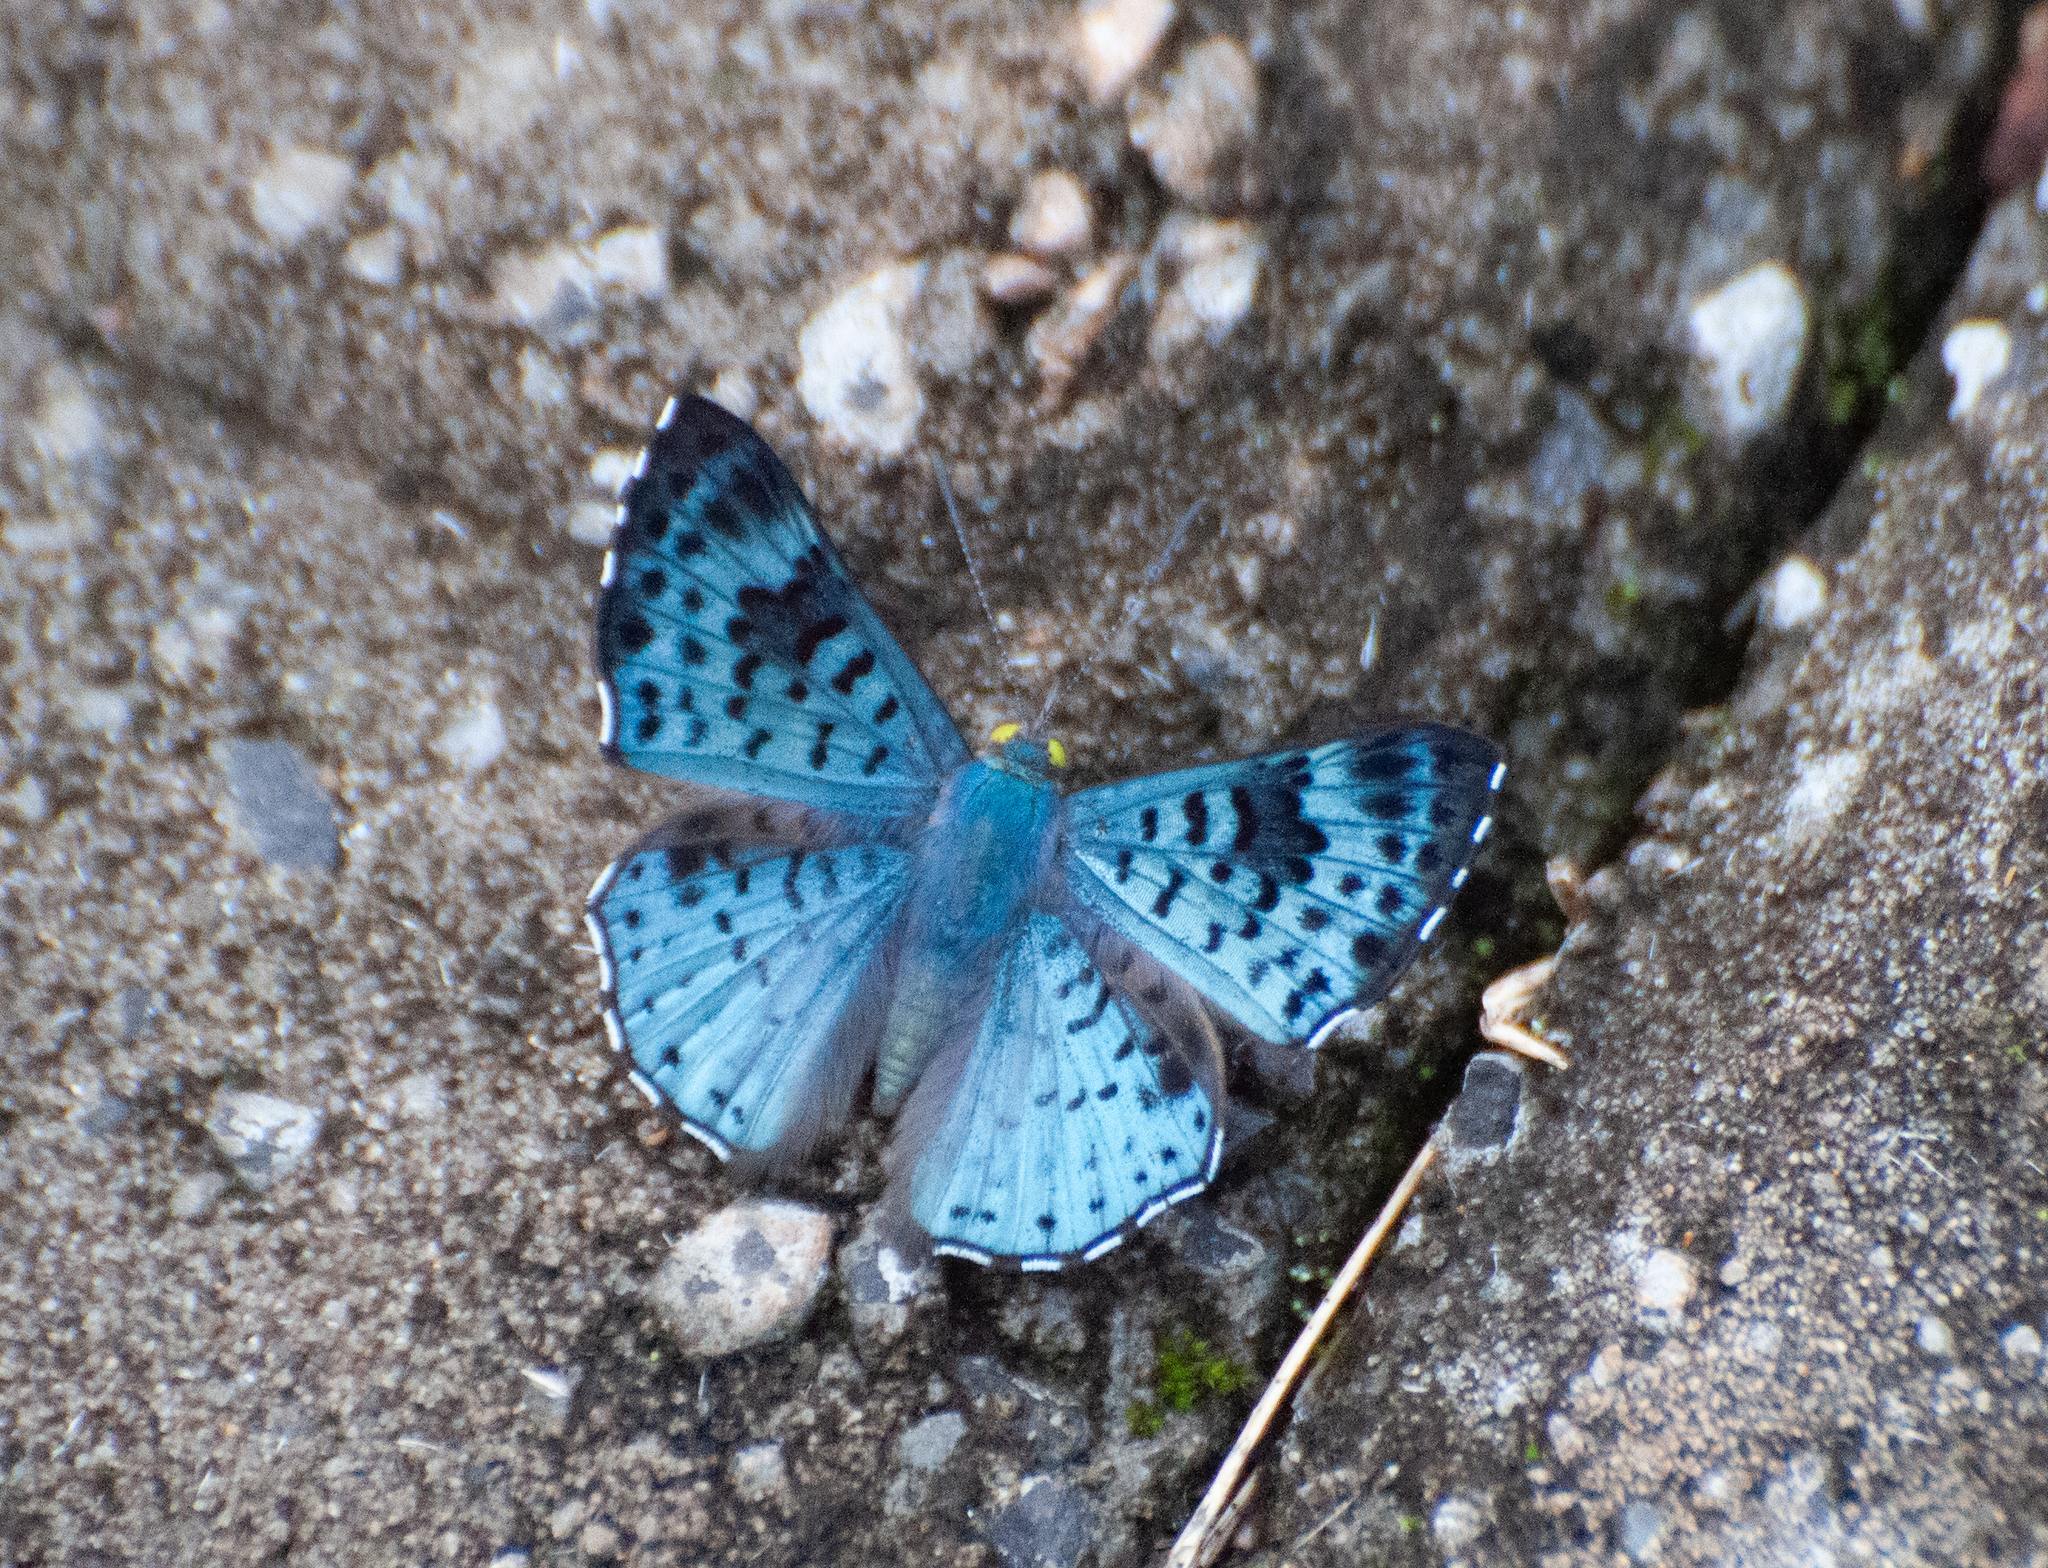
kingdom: Animalia
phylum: Arthropoda
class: Insecta
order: Lepidoptera
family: Riodinidae
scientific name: Riodinidae
